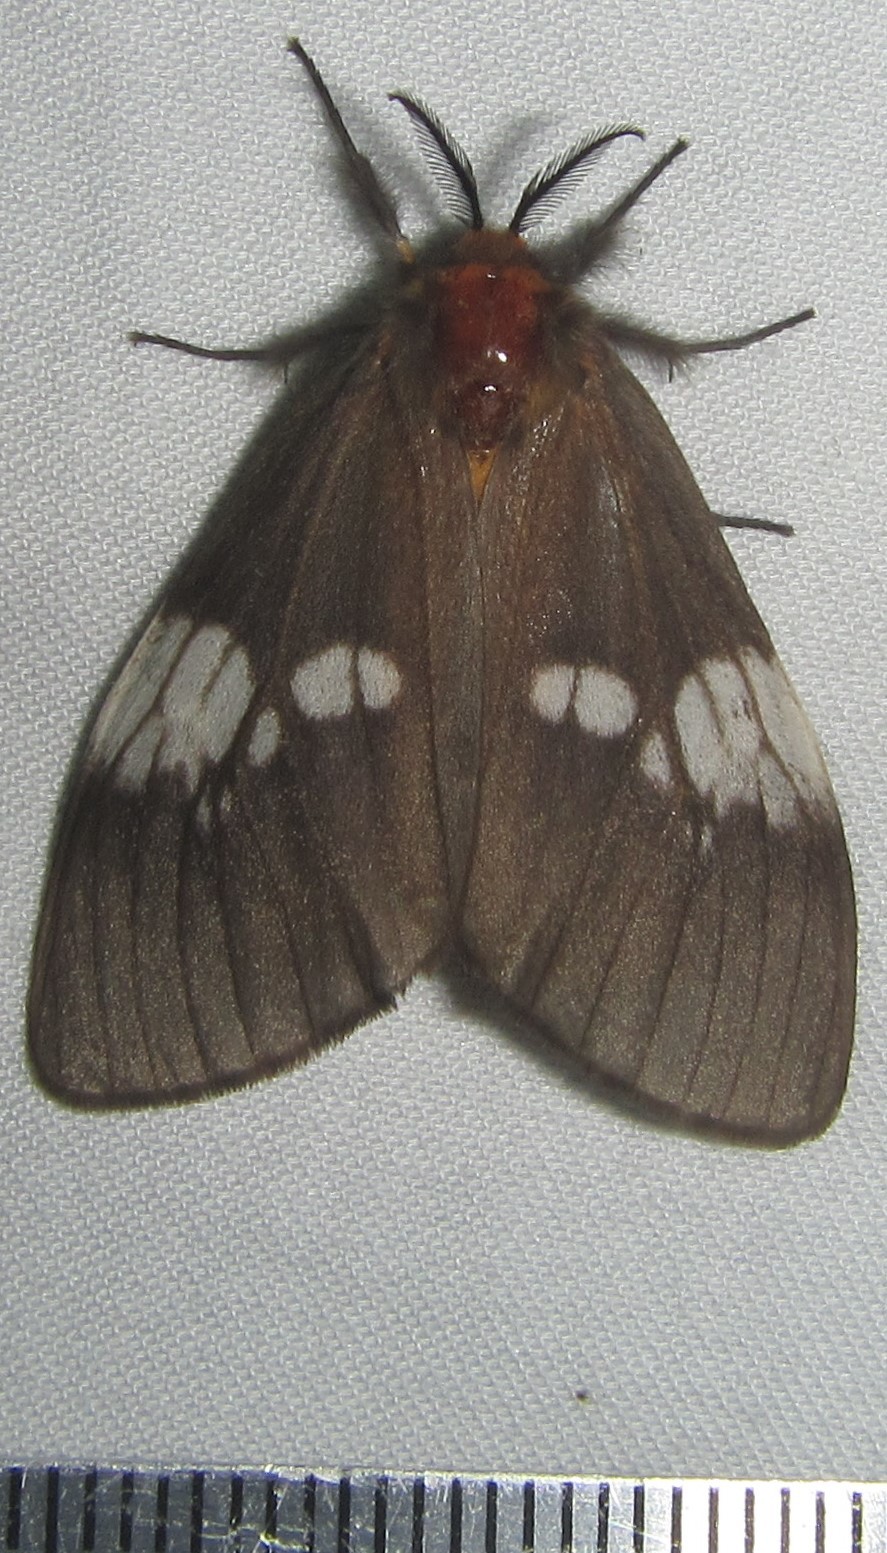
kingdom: Animalia
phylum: Arthropoda
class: Insecta
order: Lepidoptera
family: Erebidae
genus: Palasea
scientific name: Palasea albimacula
